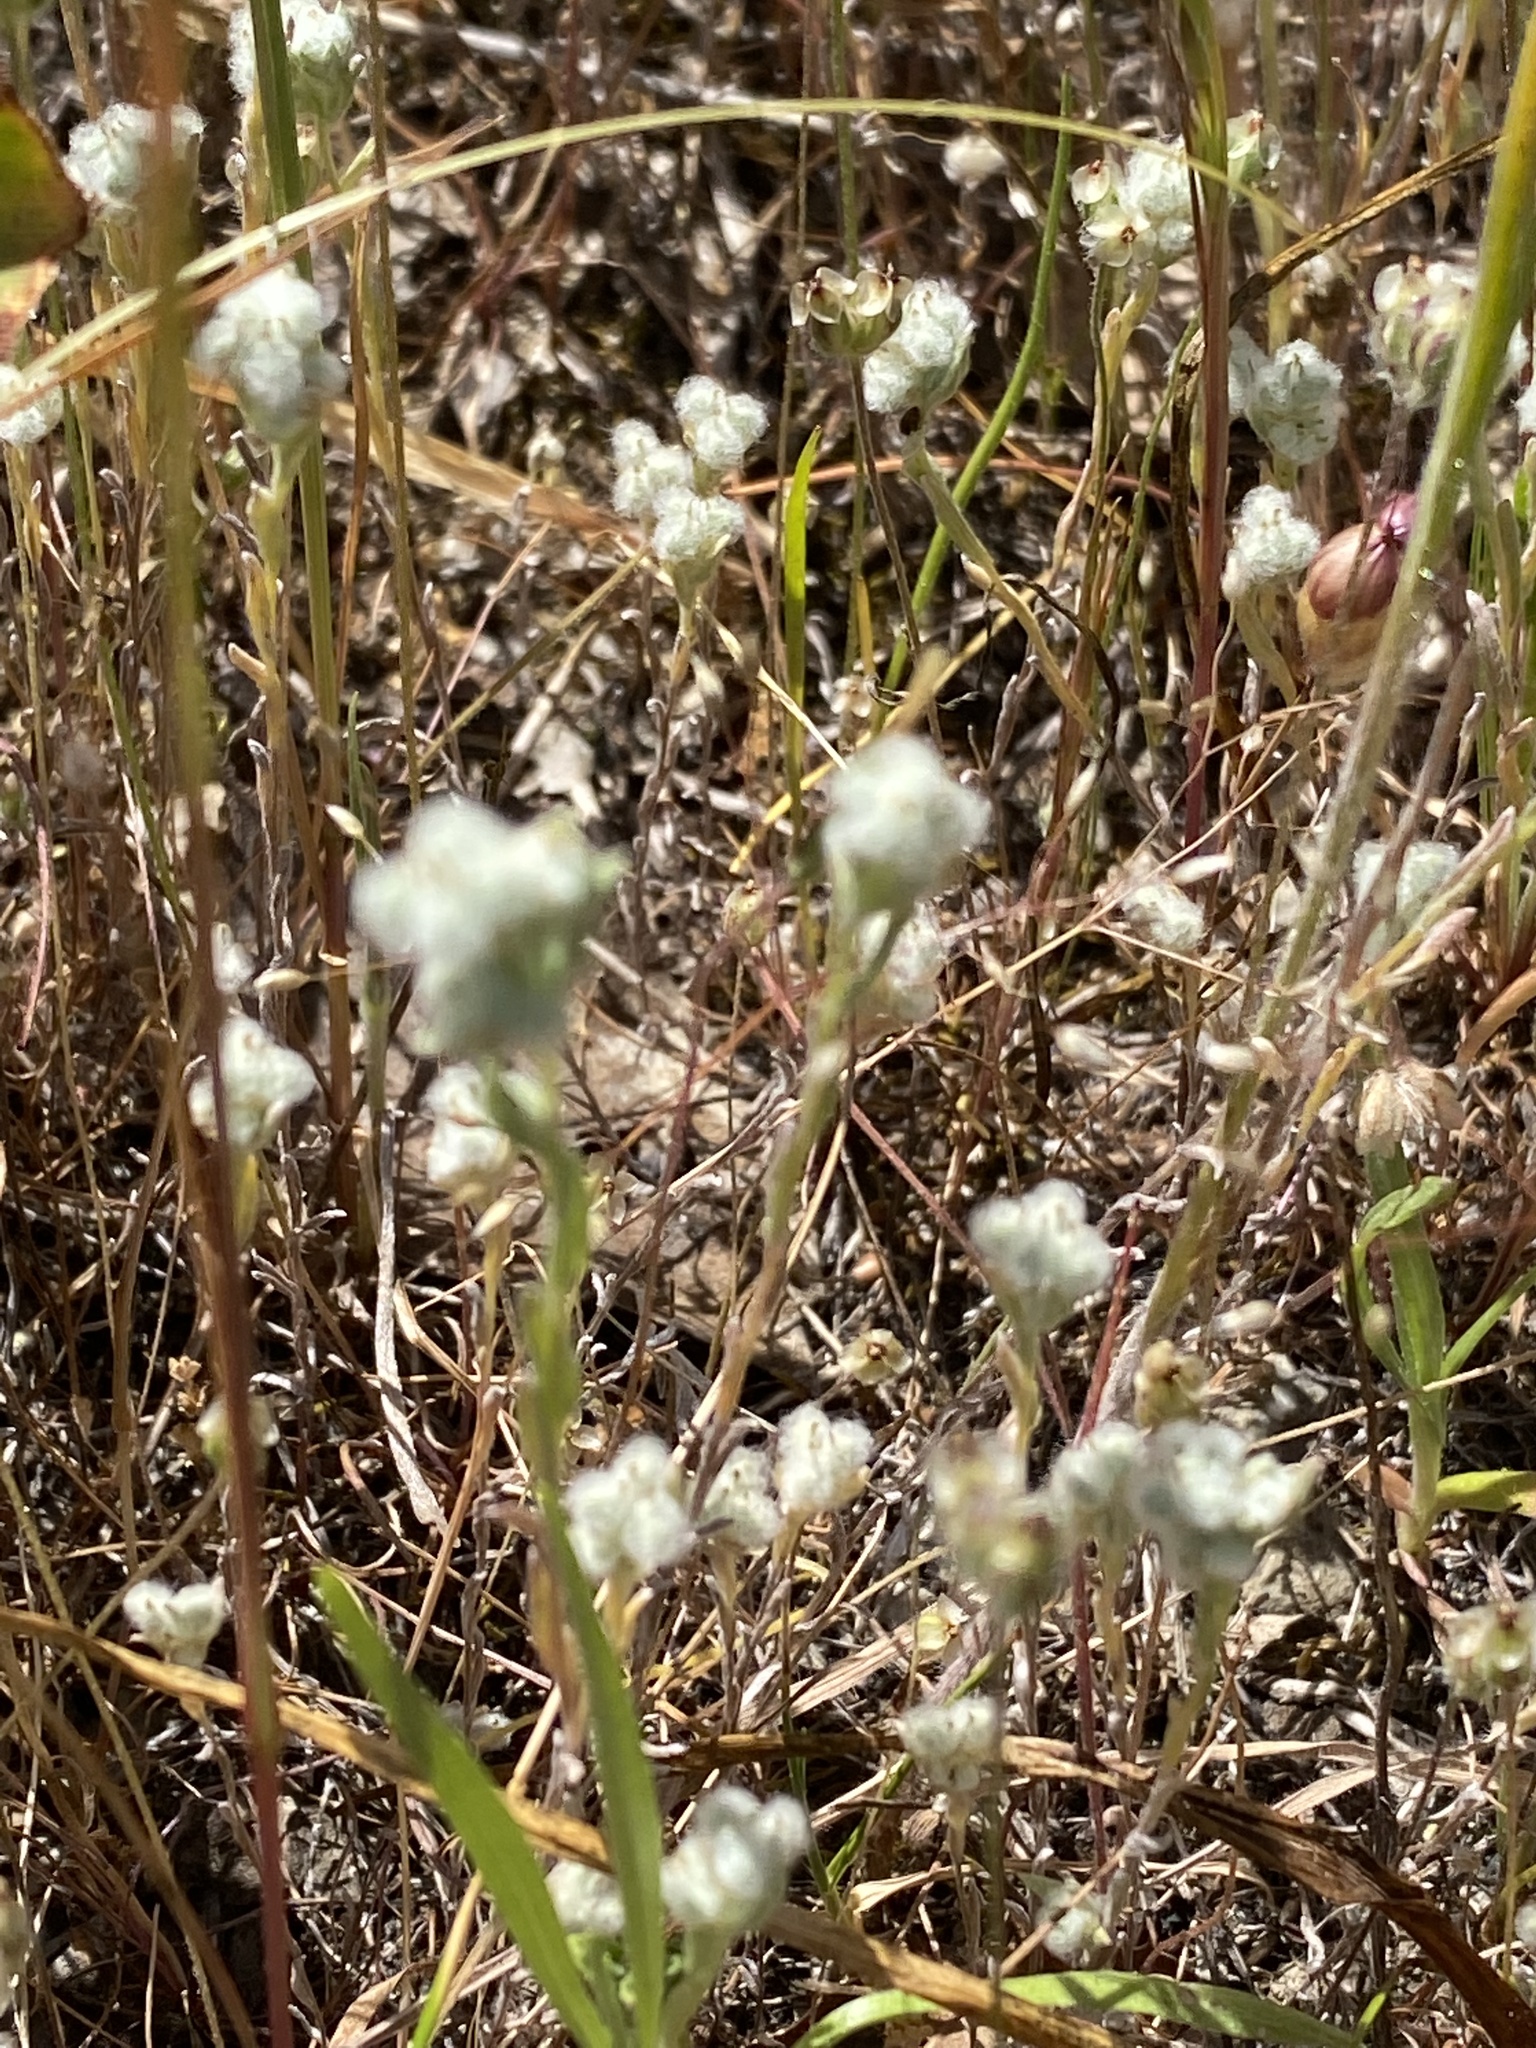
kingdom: Plantae
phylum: Tracheophyta
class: Magnoliopsida
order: Asterales
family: Asteraceae
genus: Bombycilaena
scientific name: Bombycilaena californica
